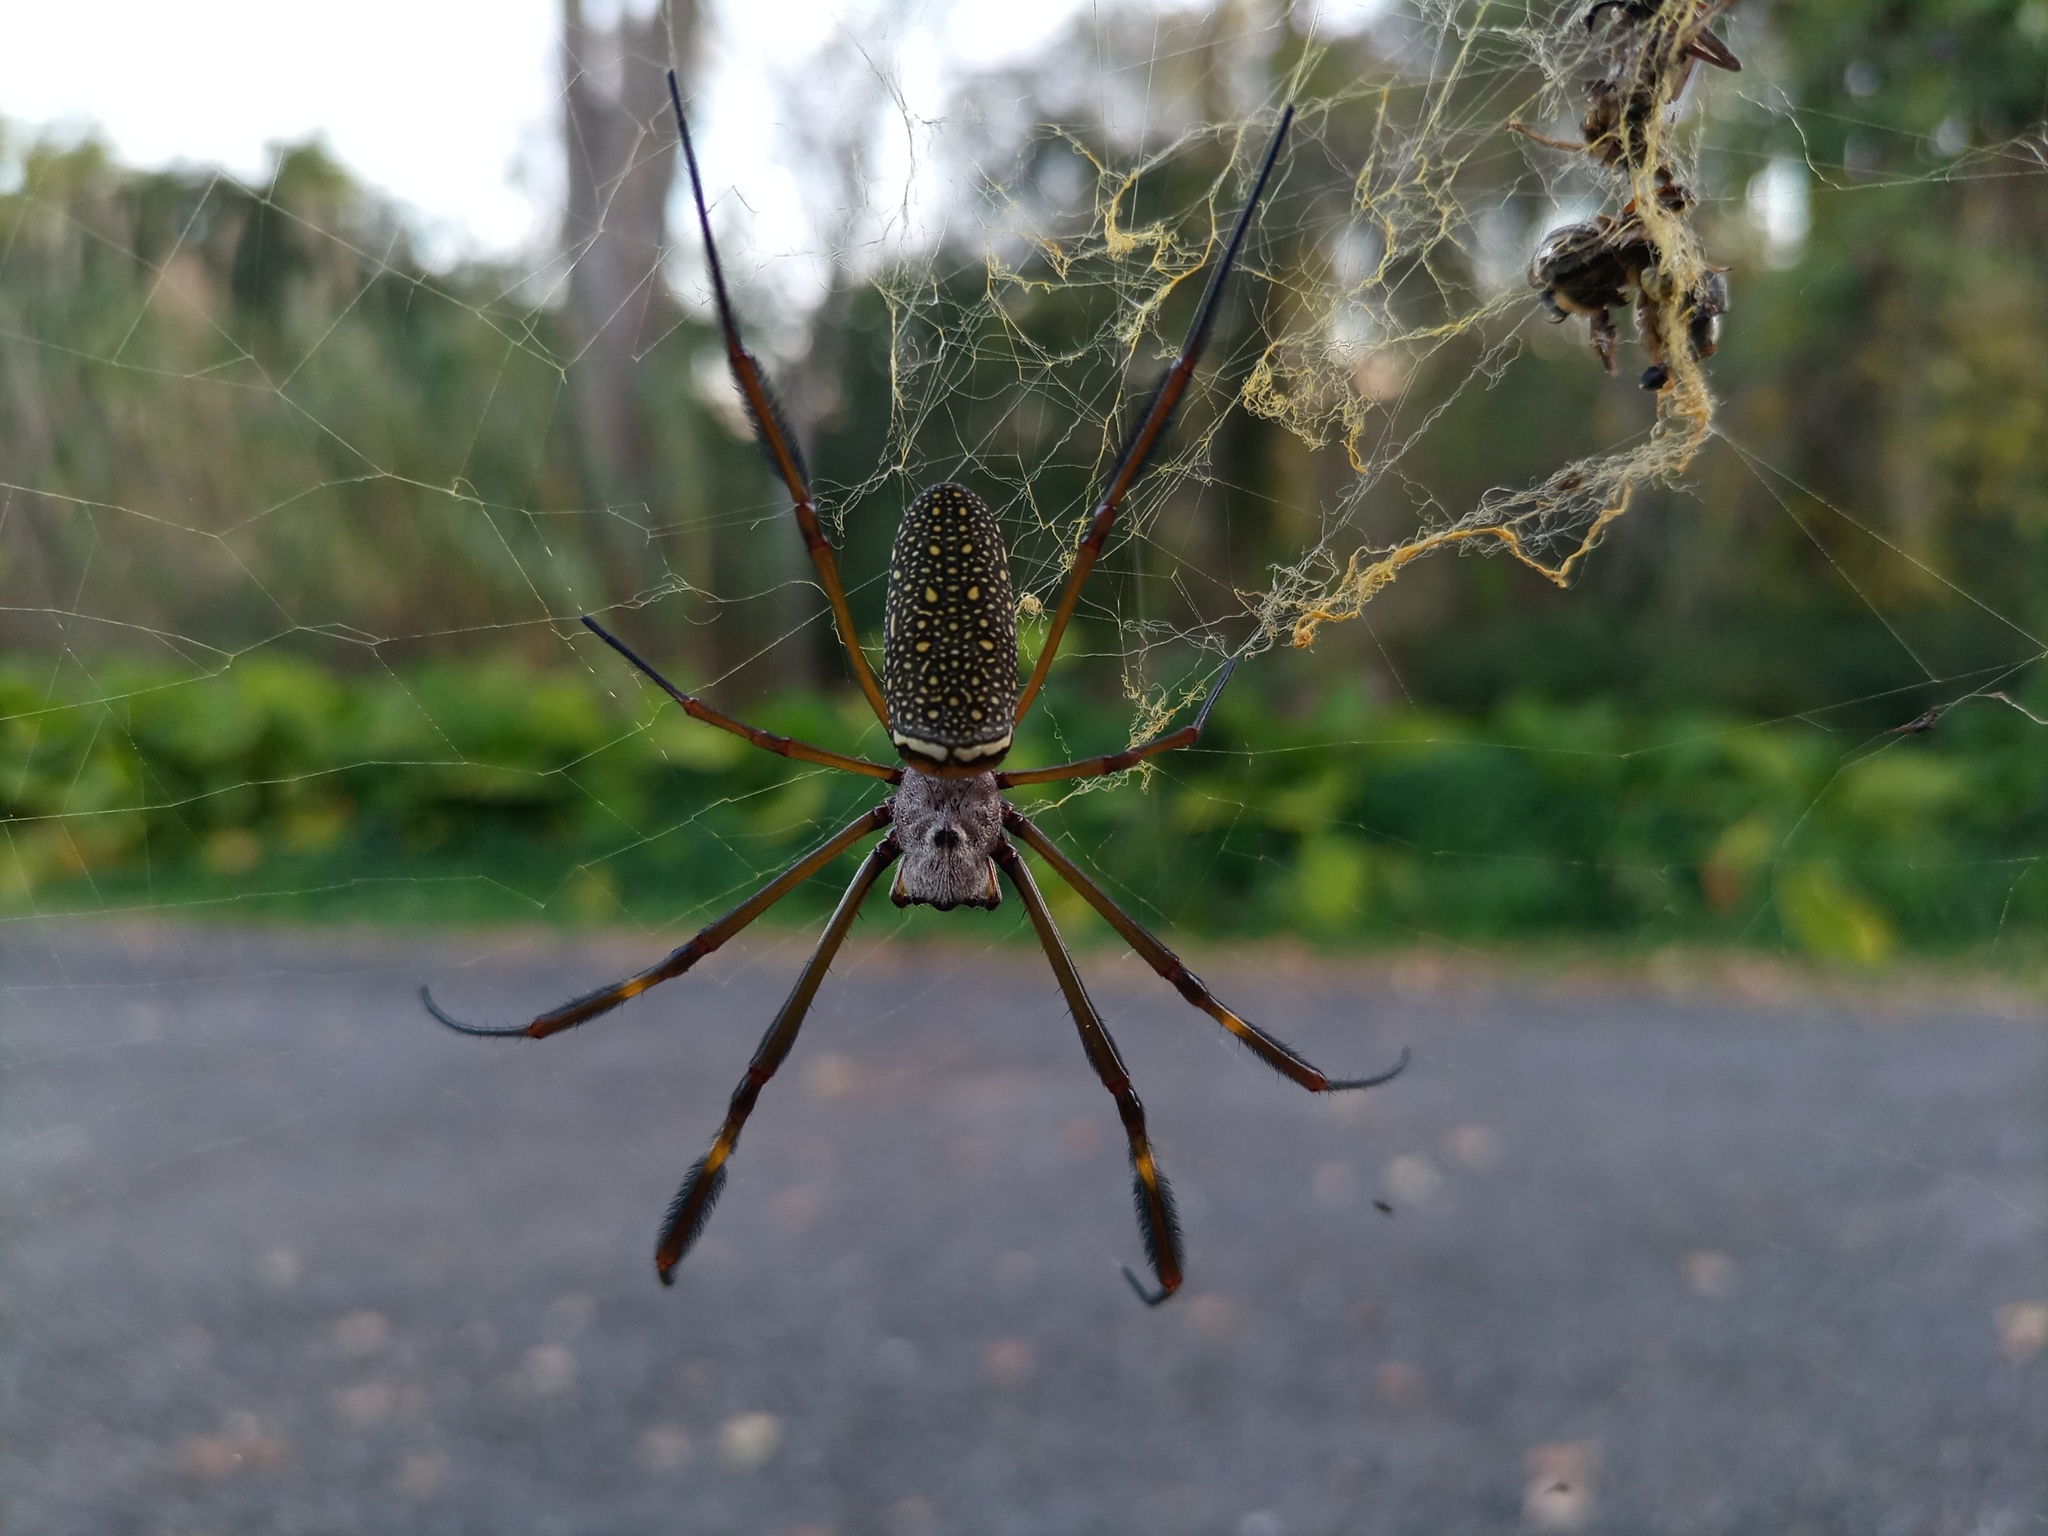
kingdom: Animalia
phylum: Arthropoda
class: Arachnida
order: Araneae
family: Araneidae
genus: Trichonephila
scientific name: Trichonephila clavipes
